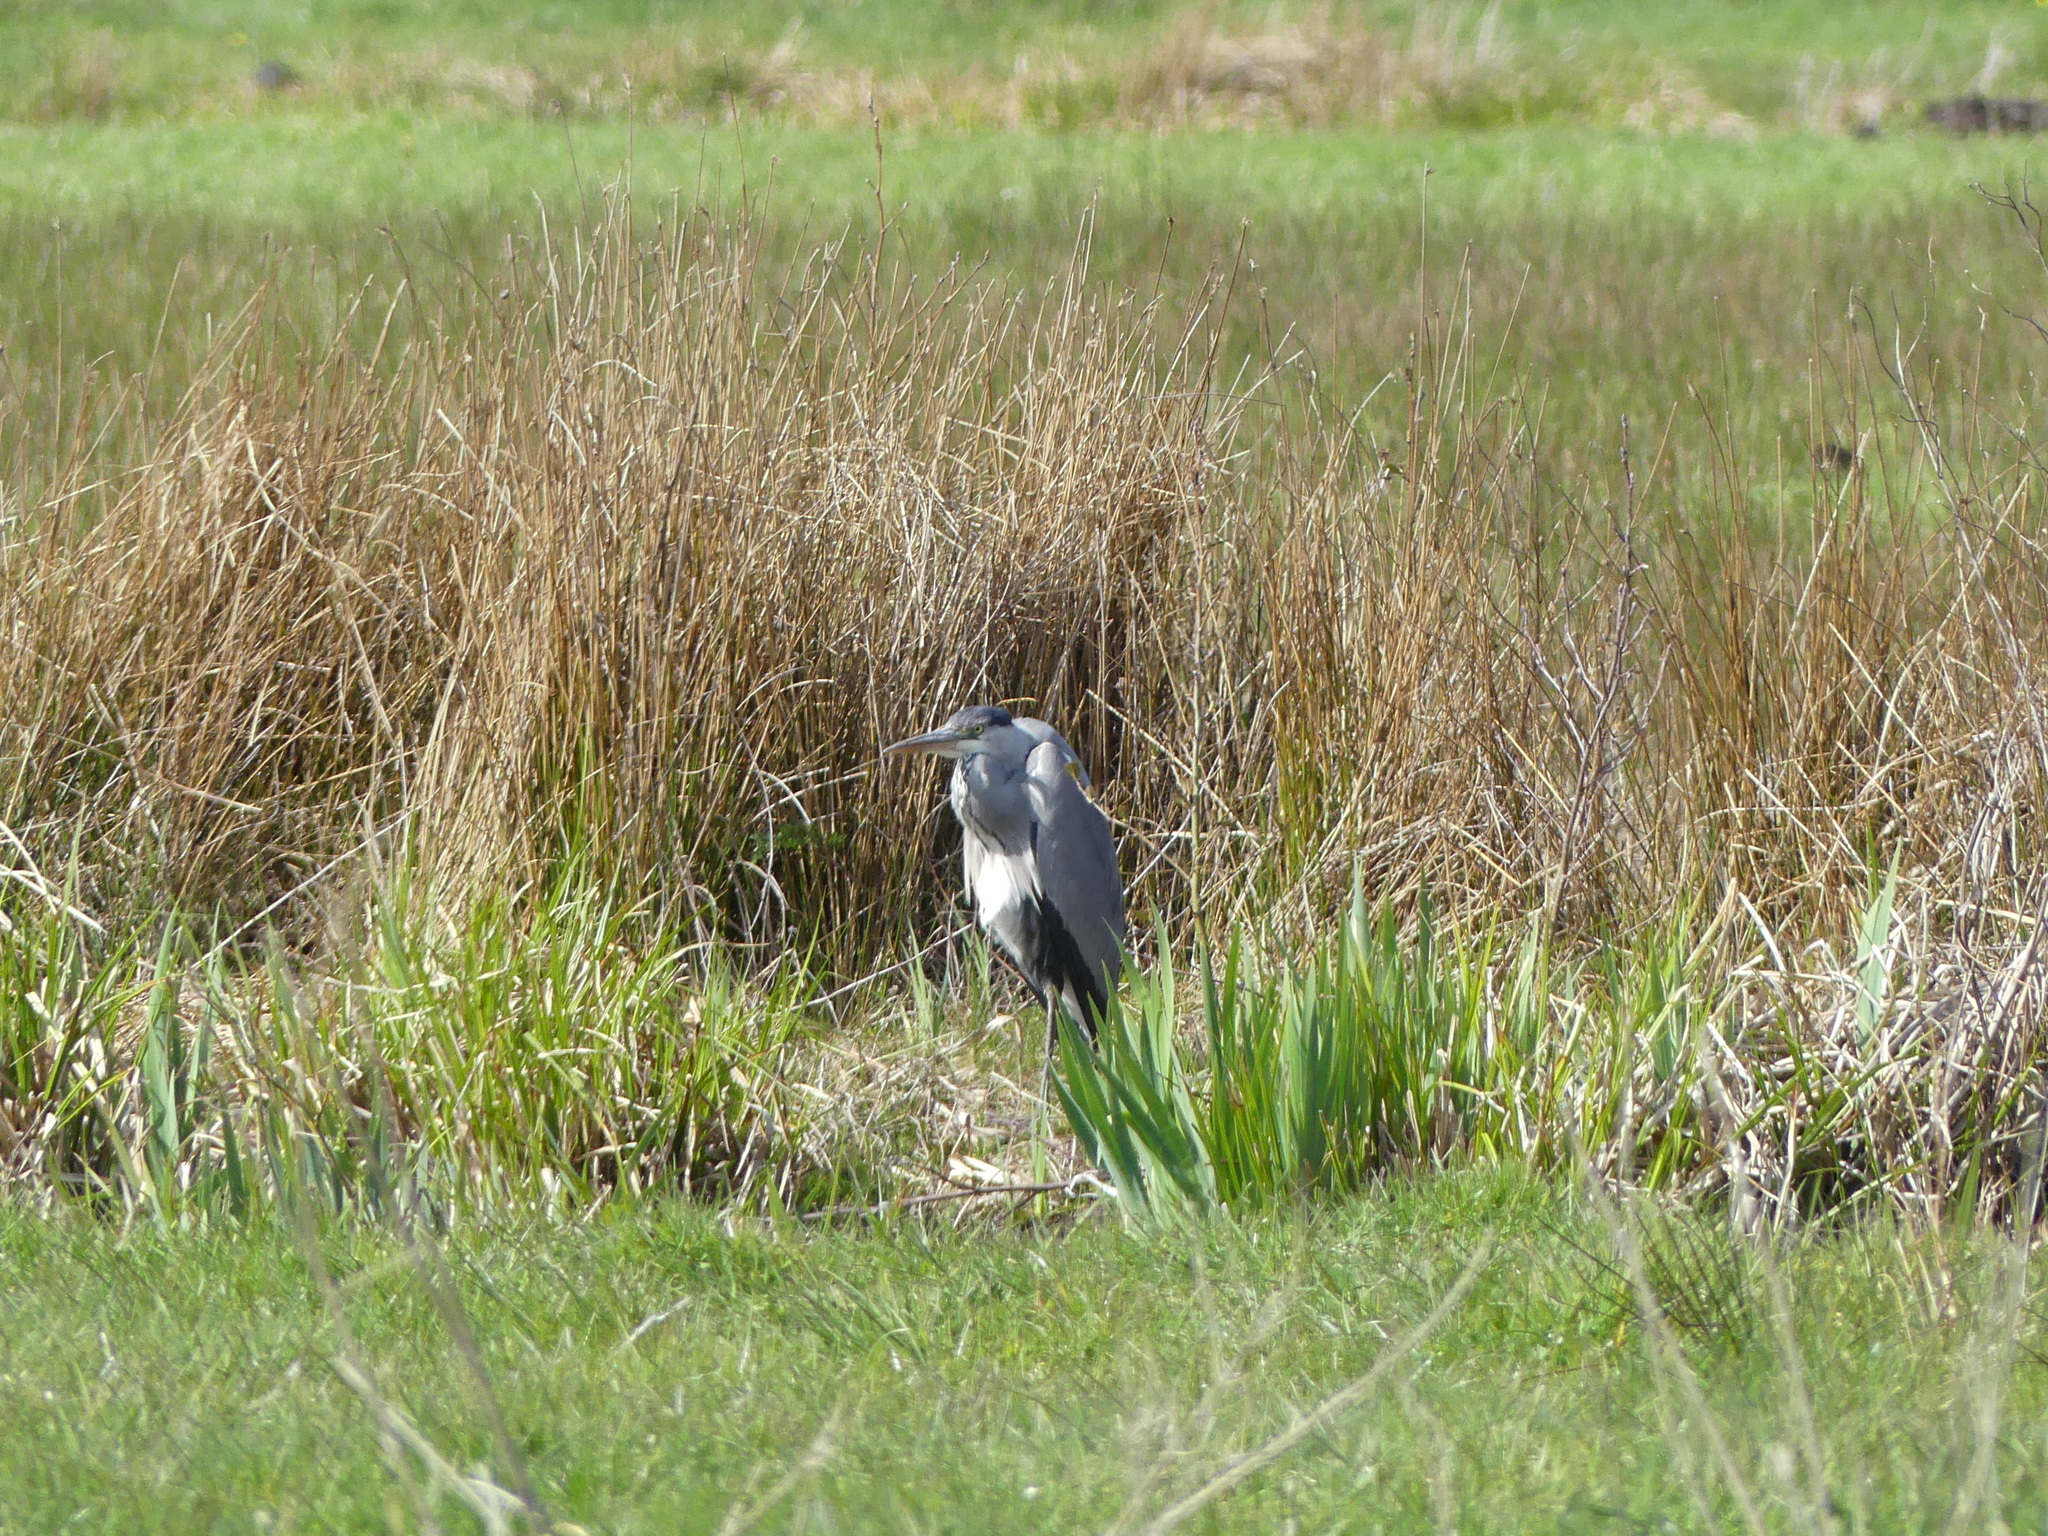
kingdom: Animalia
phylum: Chordata
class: Aves
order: Pelecaniformes
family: Ardeidae
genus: Ardea
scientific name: Ardea cinerea
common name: Grey heron
